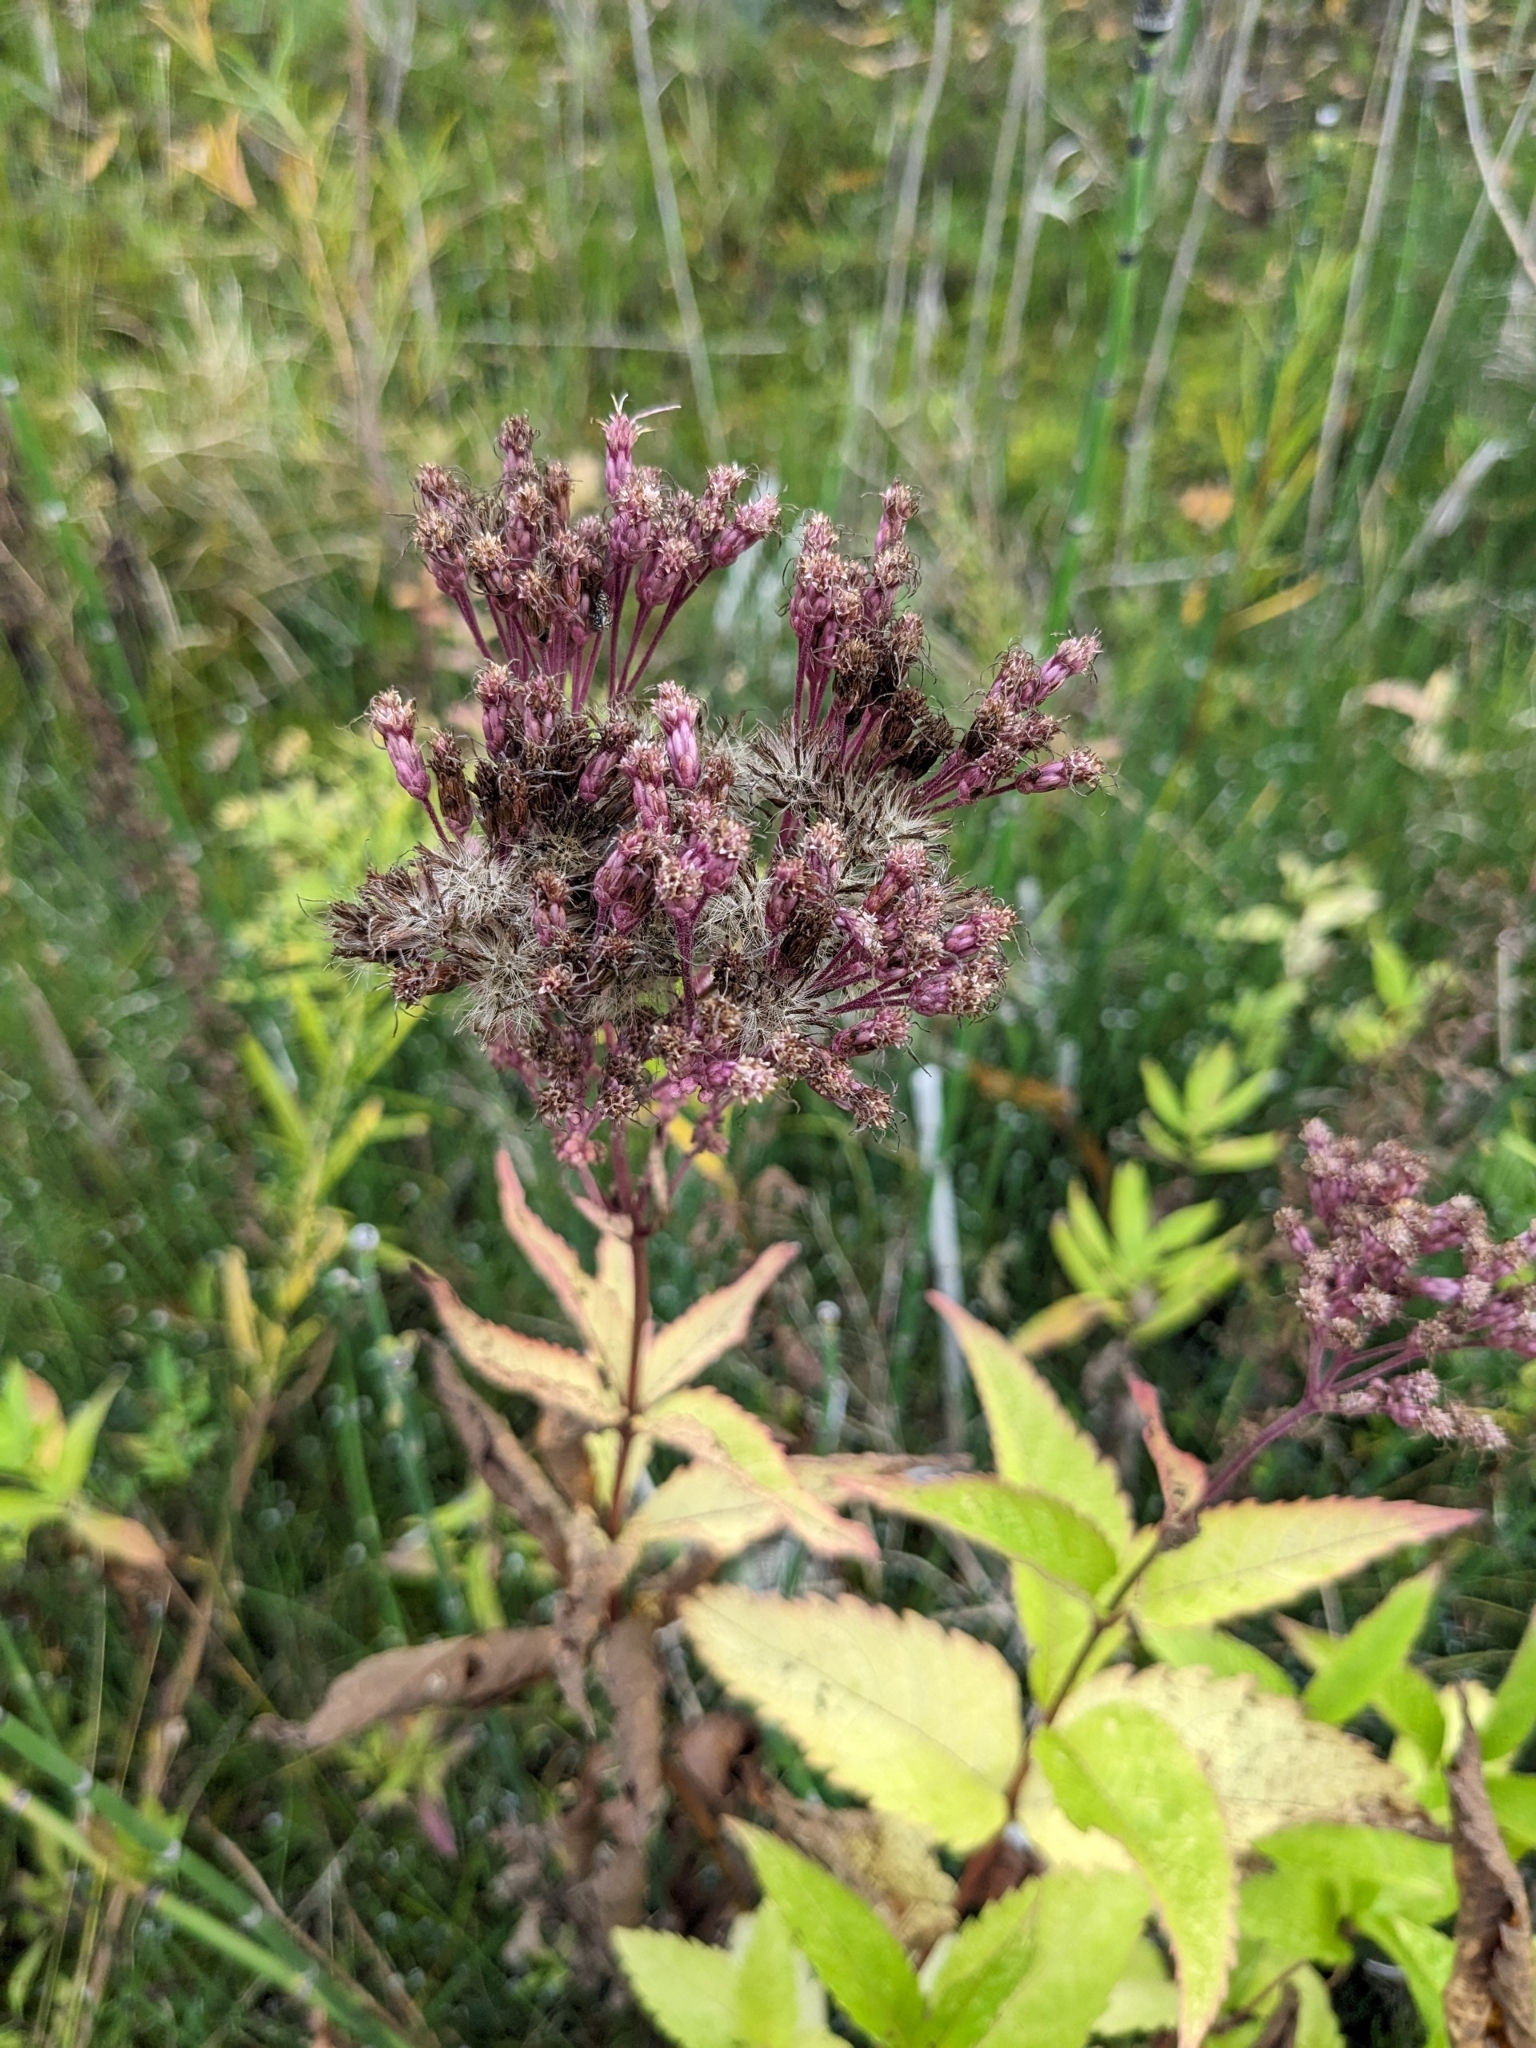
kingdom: Plantae
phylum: Tracheophyta
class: Magnoliopsida
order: Asterales
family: Asteraceae
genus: Eutrochium
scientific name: Eutrochium maculatum
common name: Spotted joe pye weed
